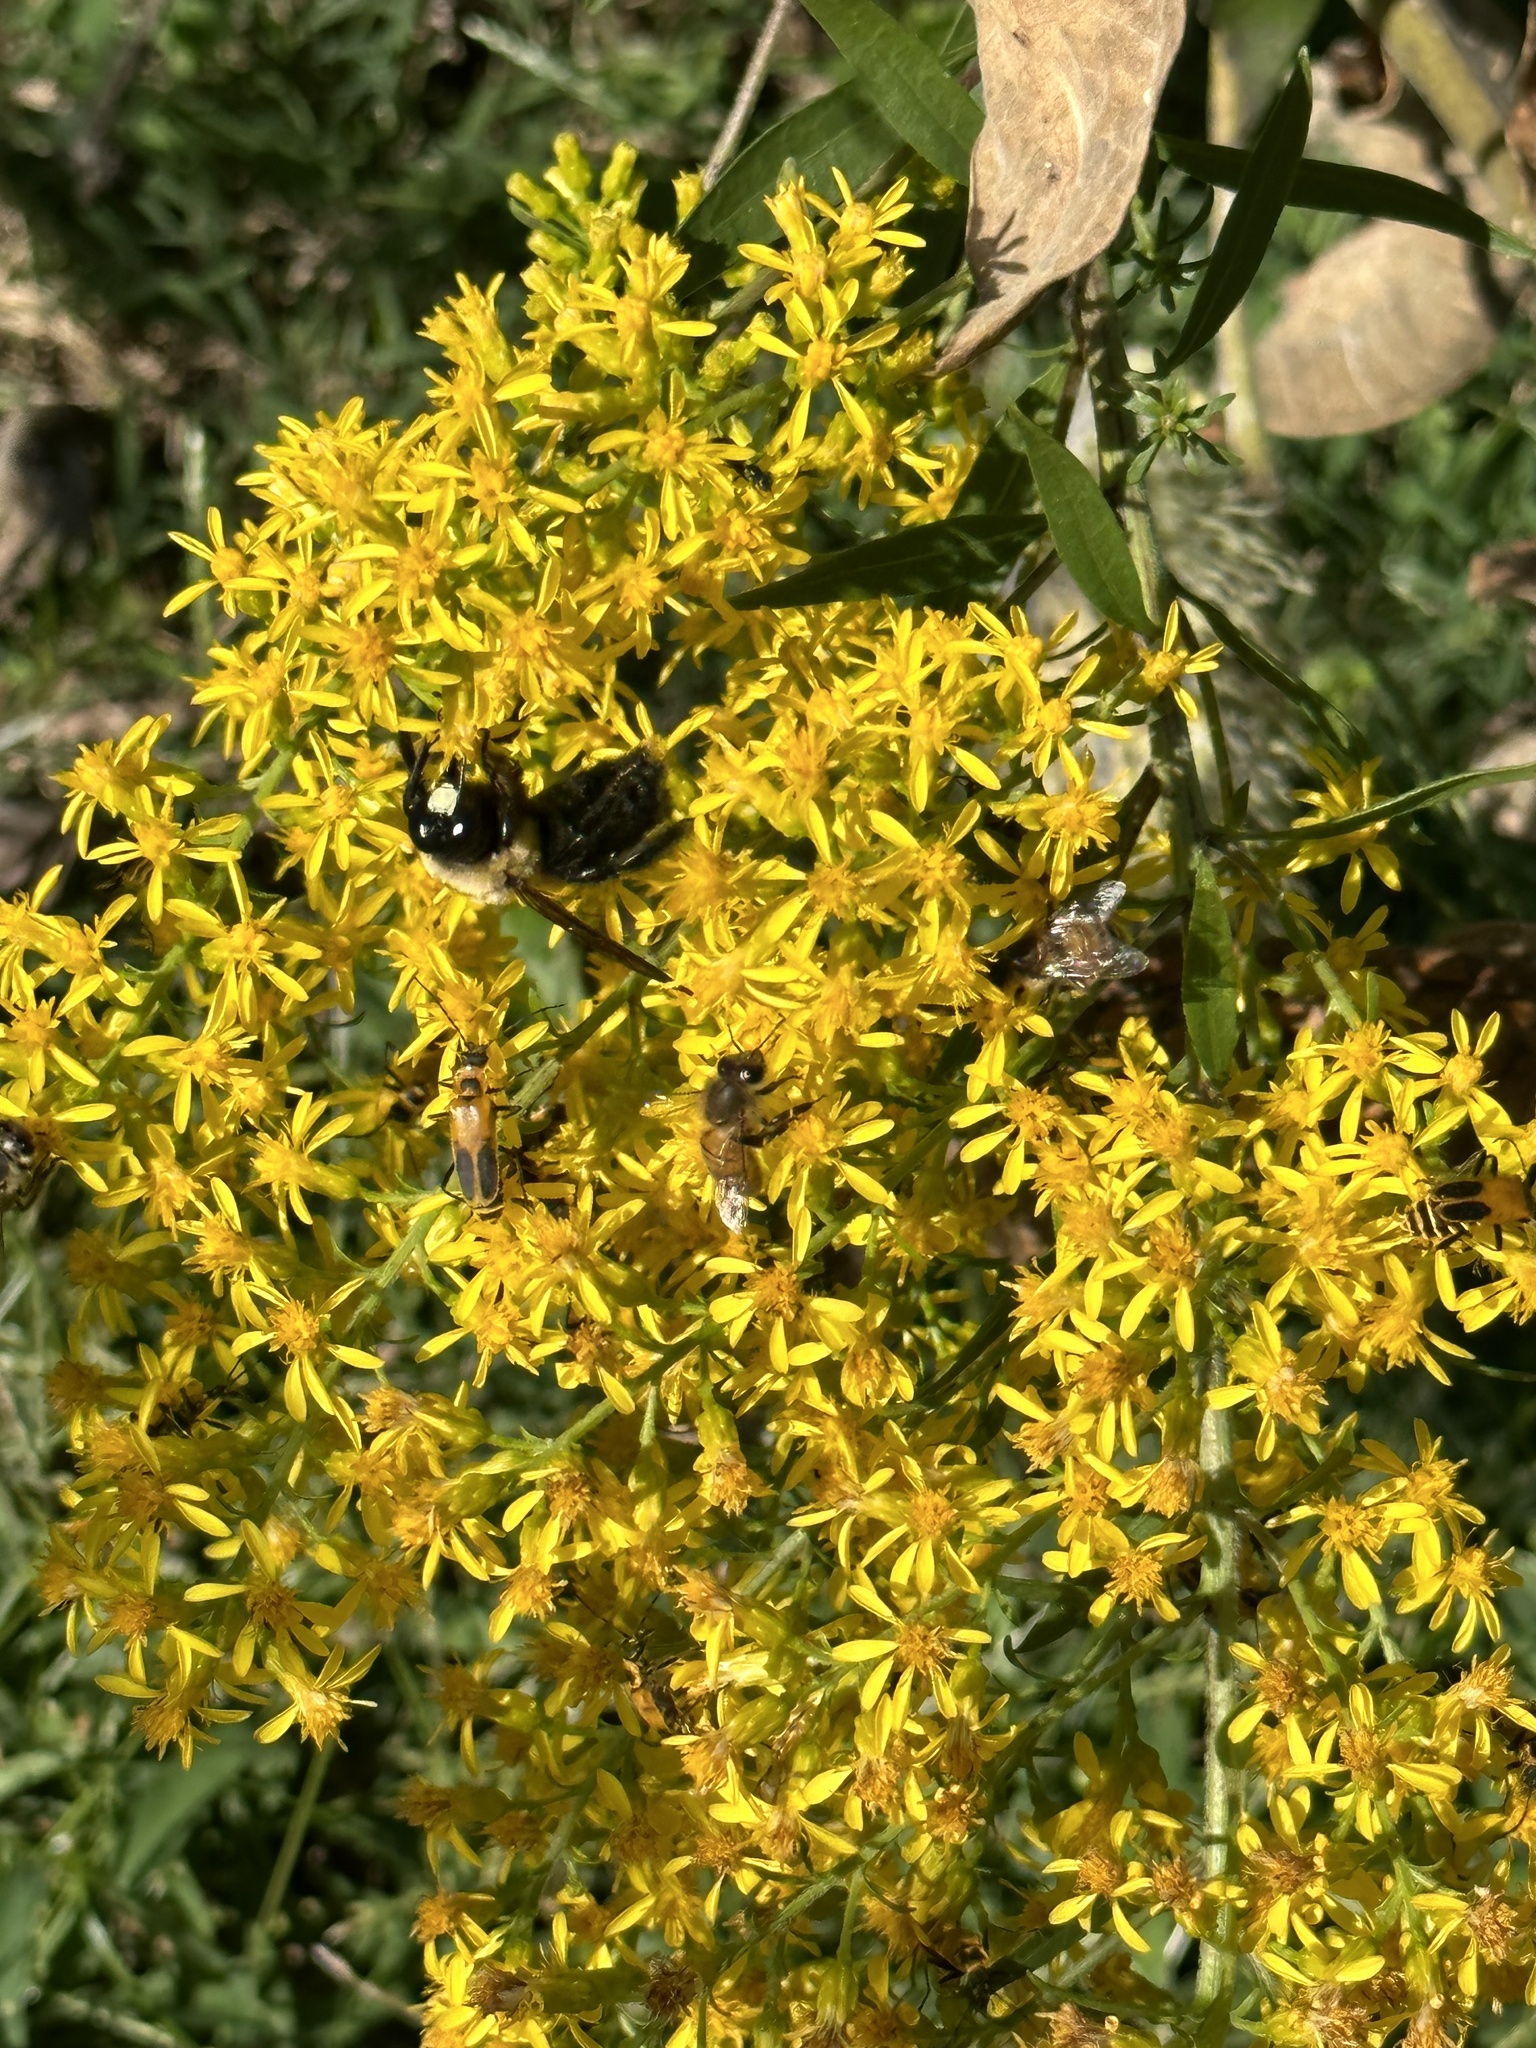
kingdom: Animalia
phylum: Arthropoda
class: Insecta
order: Hymenoptera
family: Apidae
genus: Xylocopa
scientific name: Xylocopa virginica
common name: Carpenter bee
